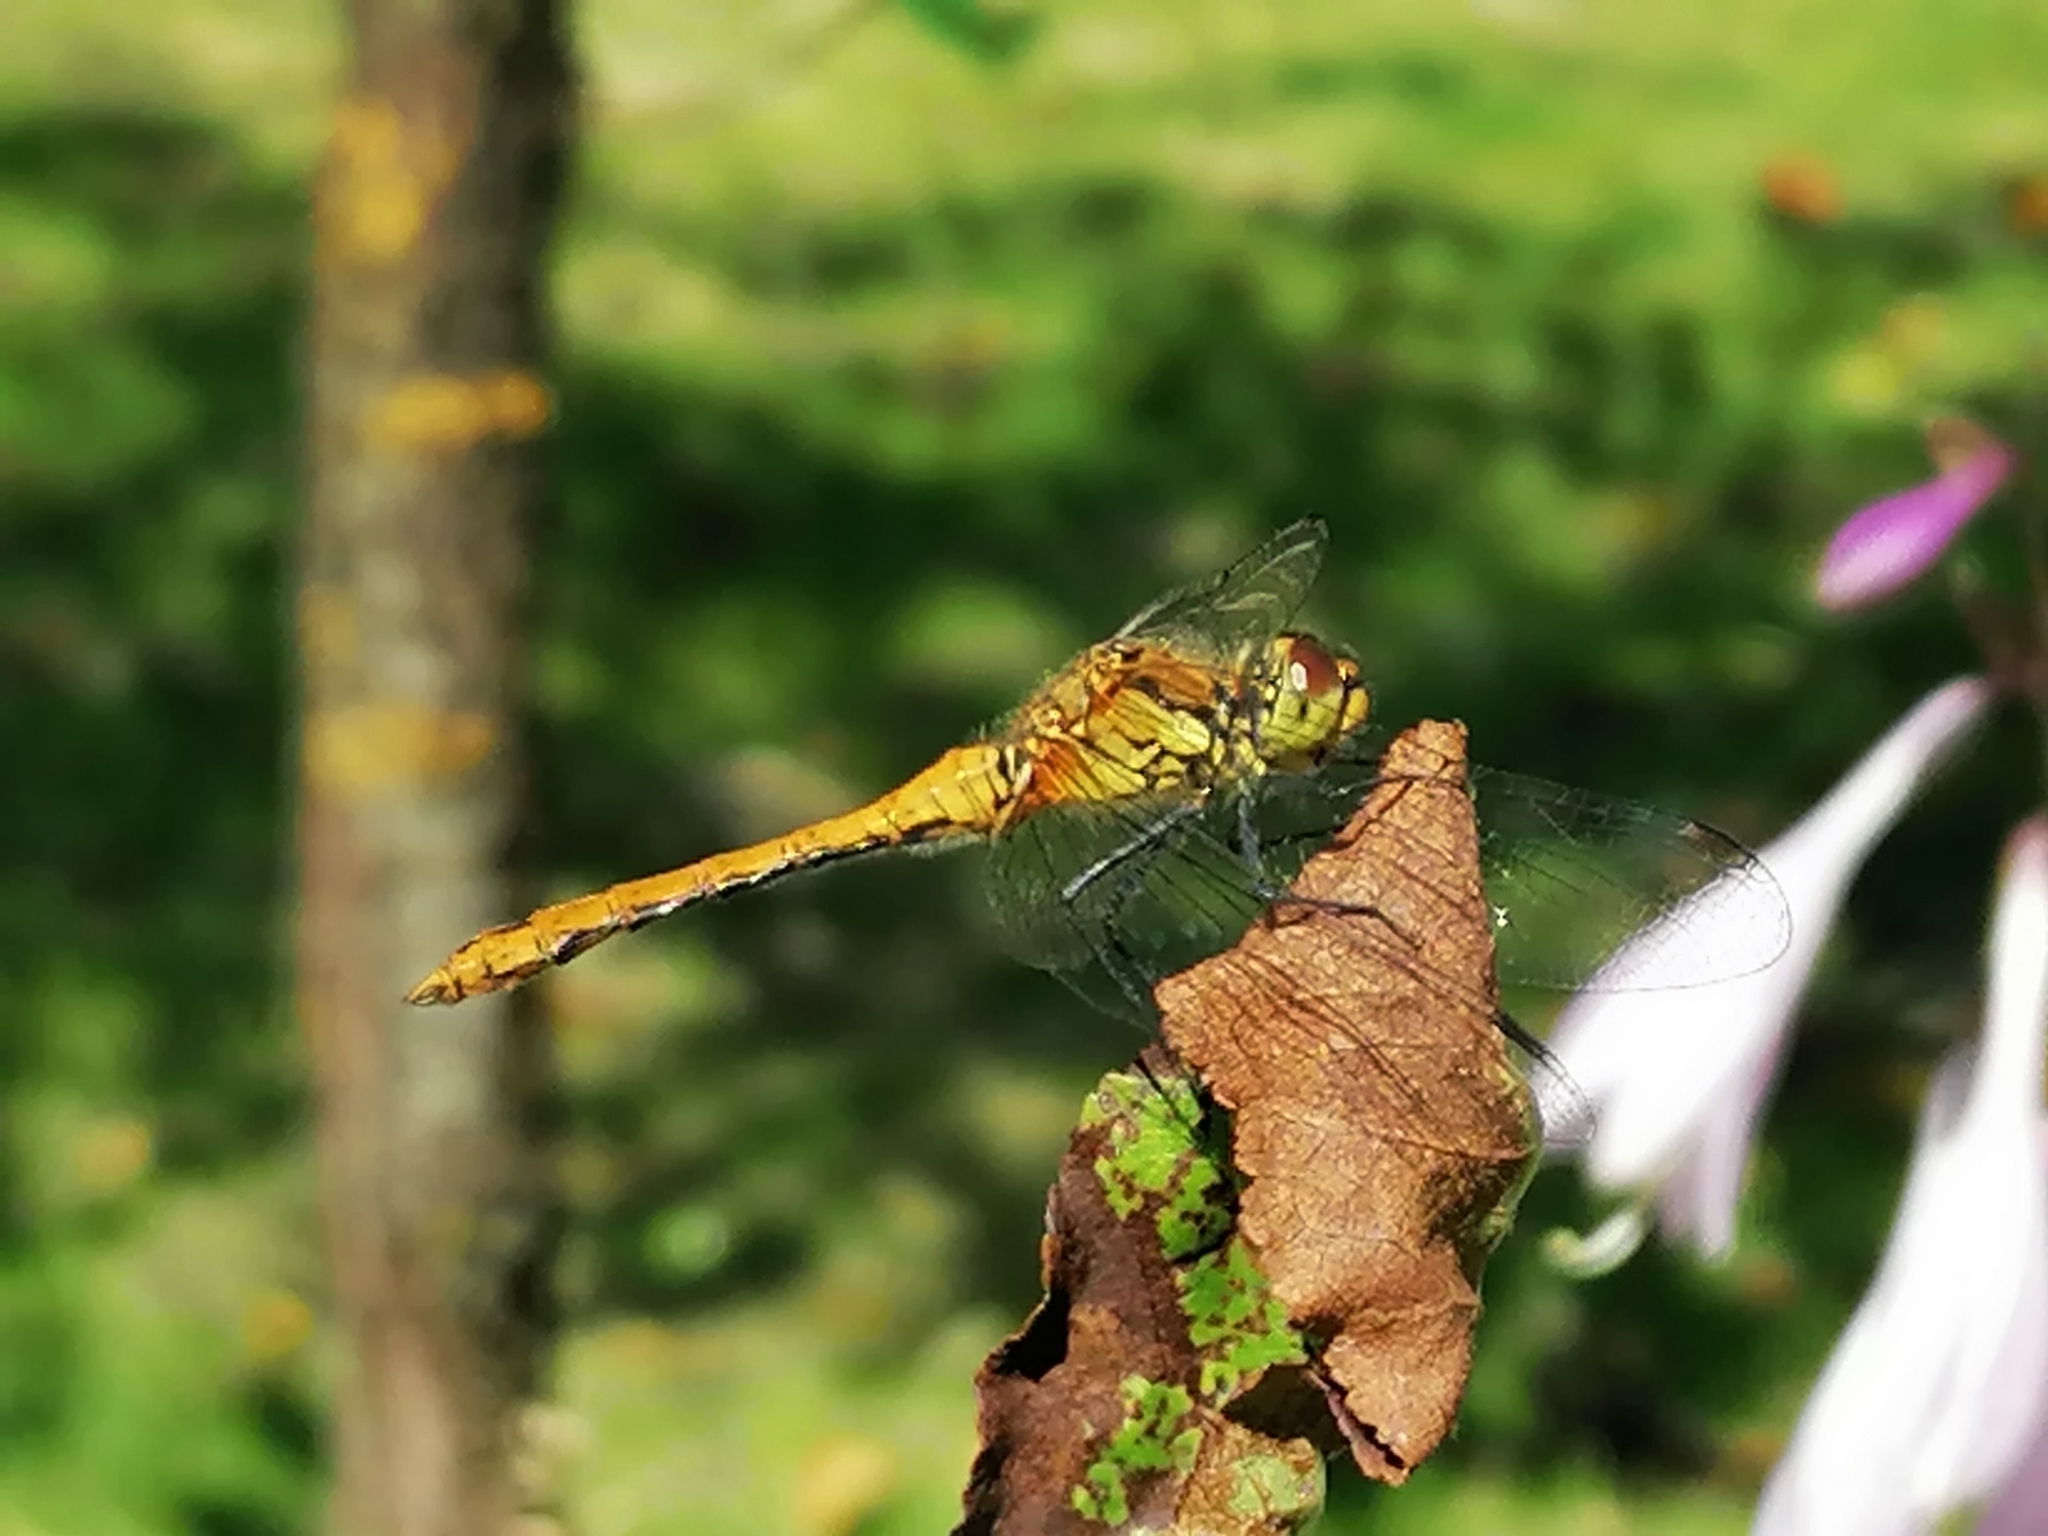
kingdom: Animalia
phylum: Arthropoda
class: Insecta
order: Odonata
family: Libellulidae
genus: Sympetrum
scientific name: Sympetrum sanguineum
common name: Ruddy darter
